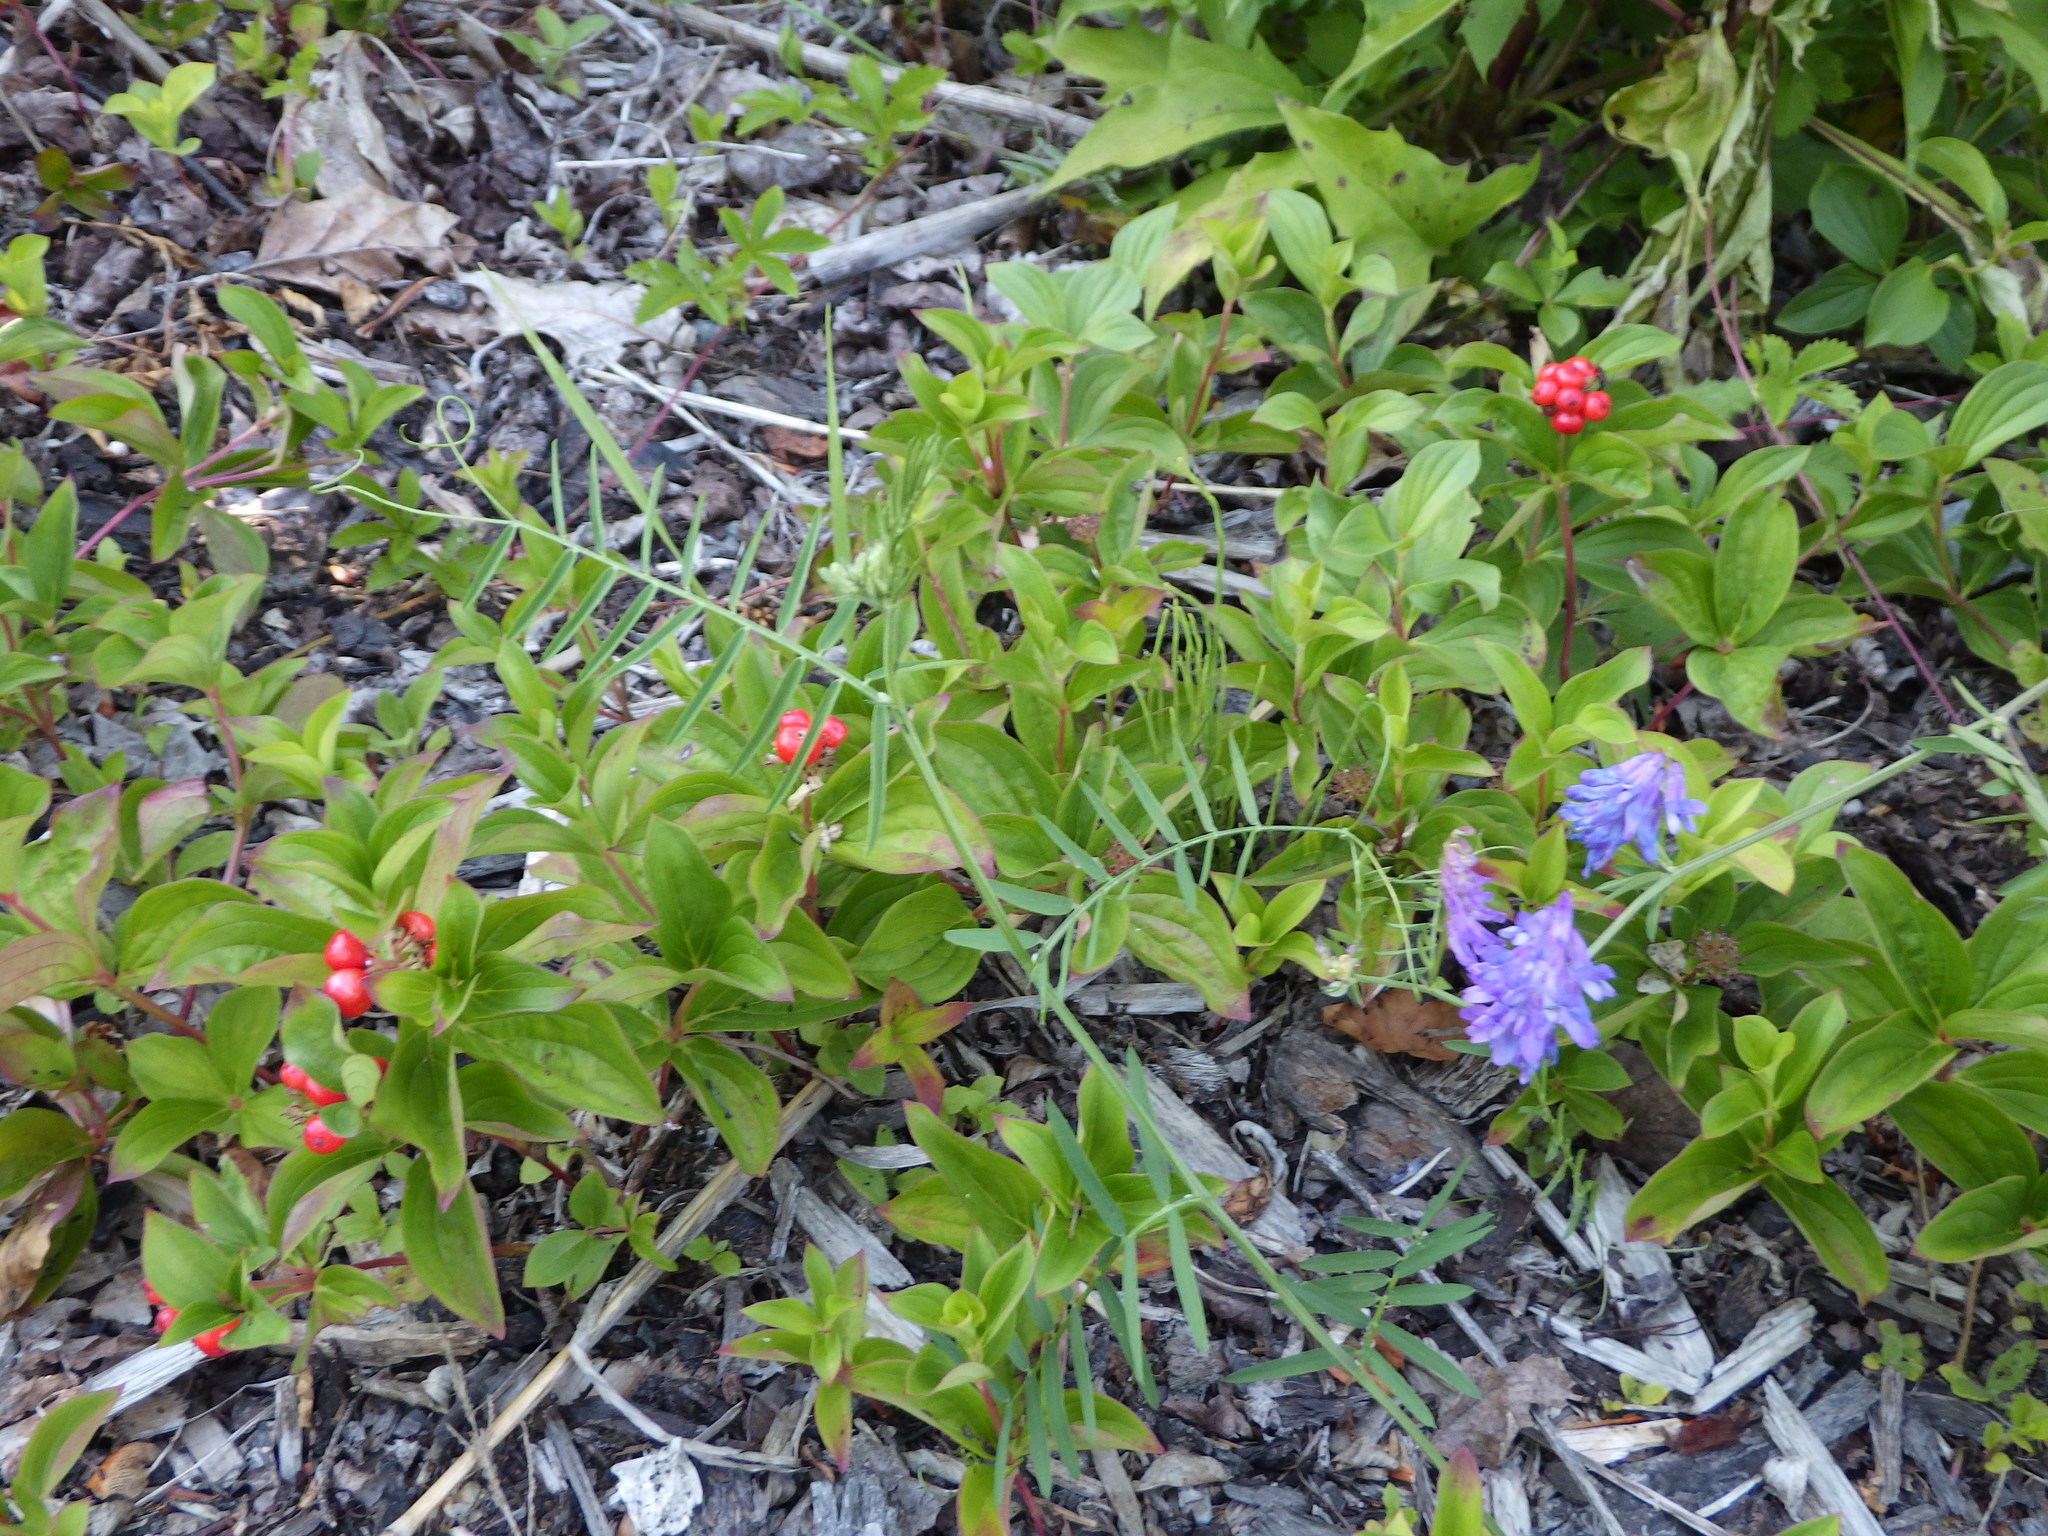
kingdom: Plantae
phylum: Tracheophyta
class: Magnoliopsida
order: Cornales
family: Cornaceae
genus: Cornus
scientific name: Cornus canadensis
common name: Creeping dogwood
